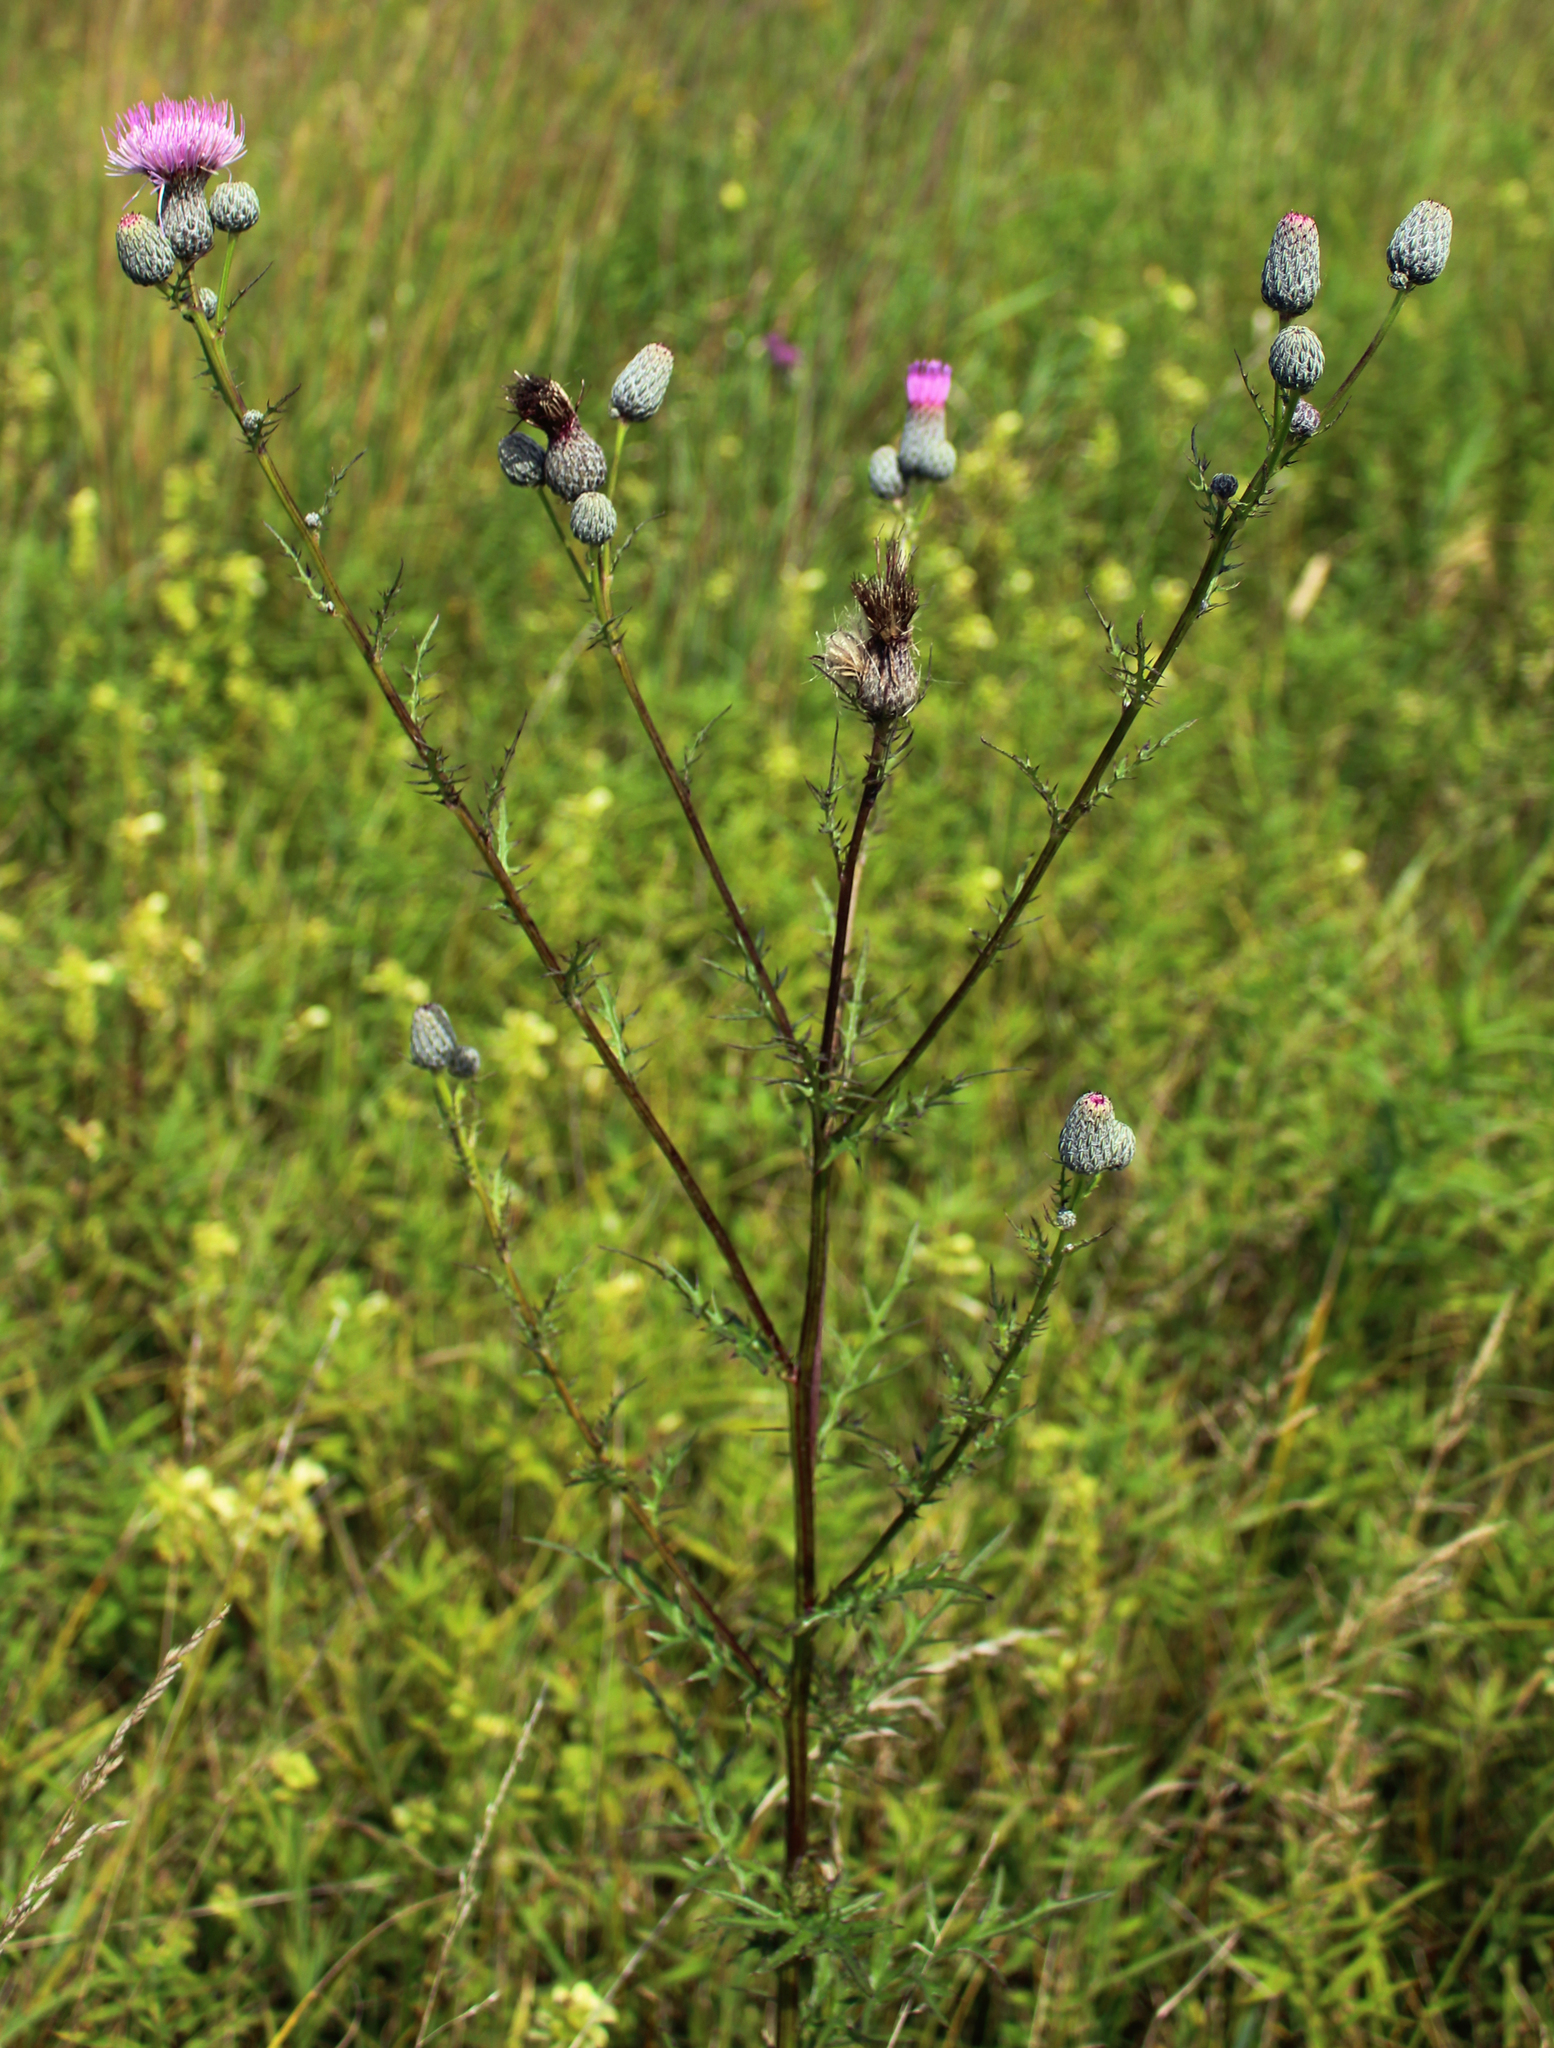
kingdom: Plantae
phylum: Tracheophyta
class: Magnoliopsida
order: Asterales
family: Asteraceae
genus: Cirsium
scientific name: Cirsium muticum
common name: Dunce-nettle
